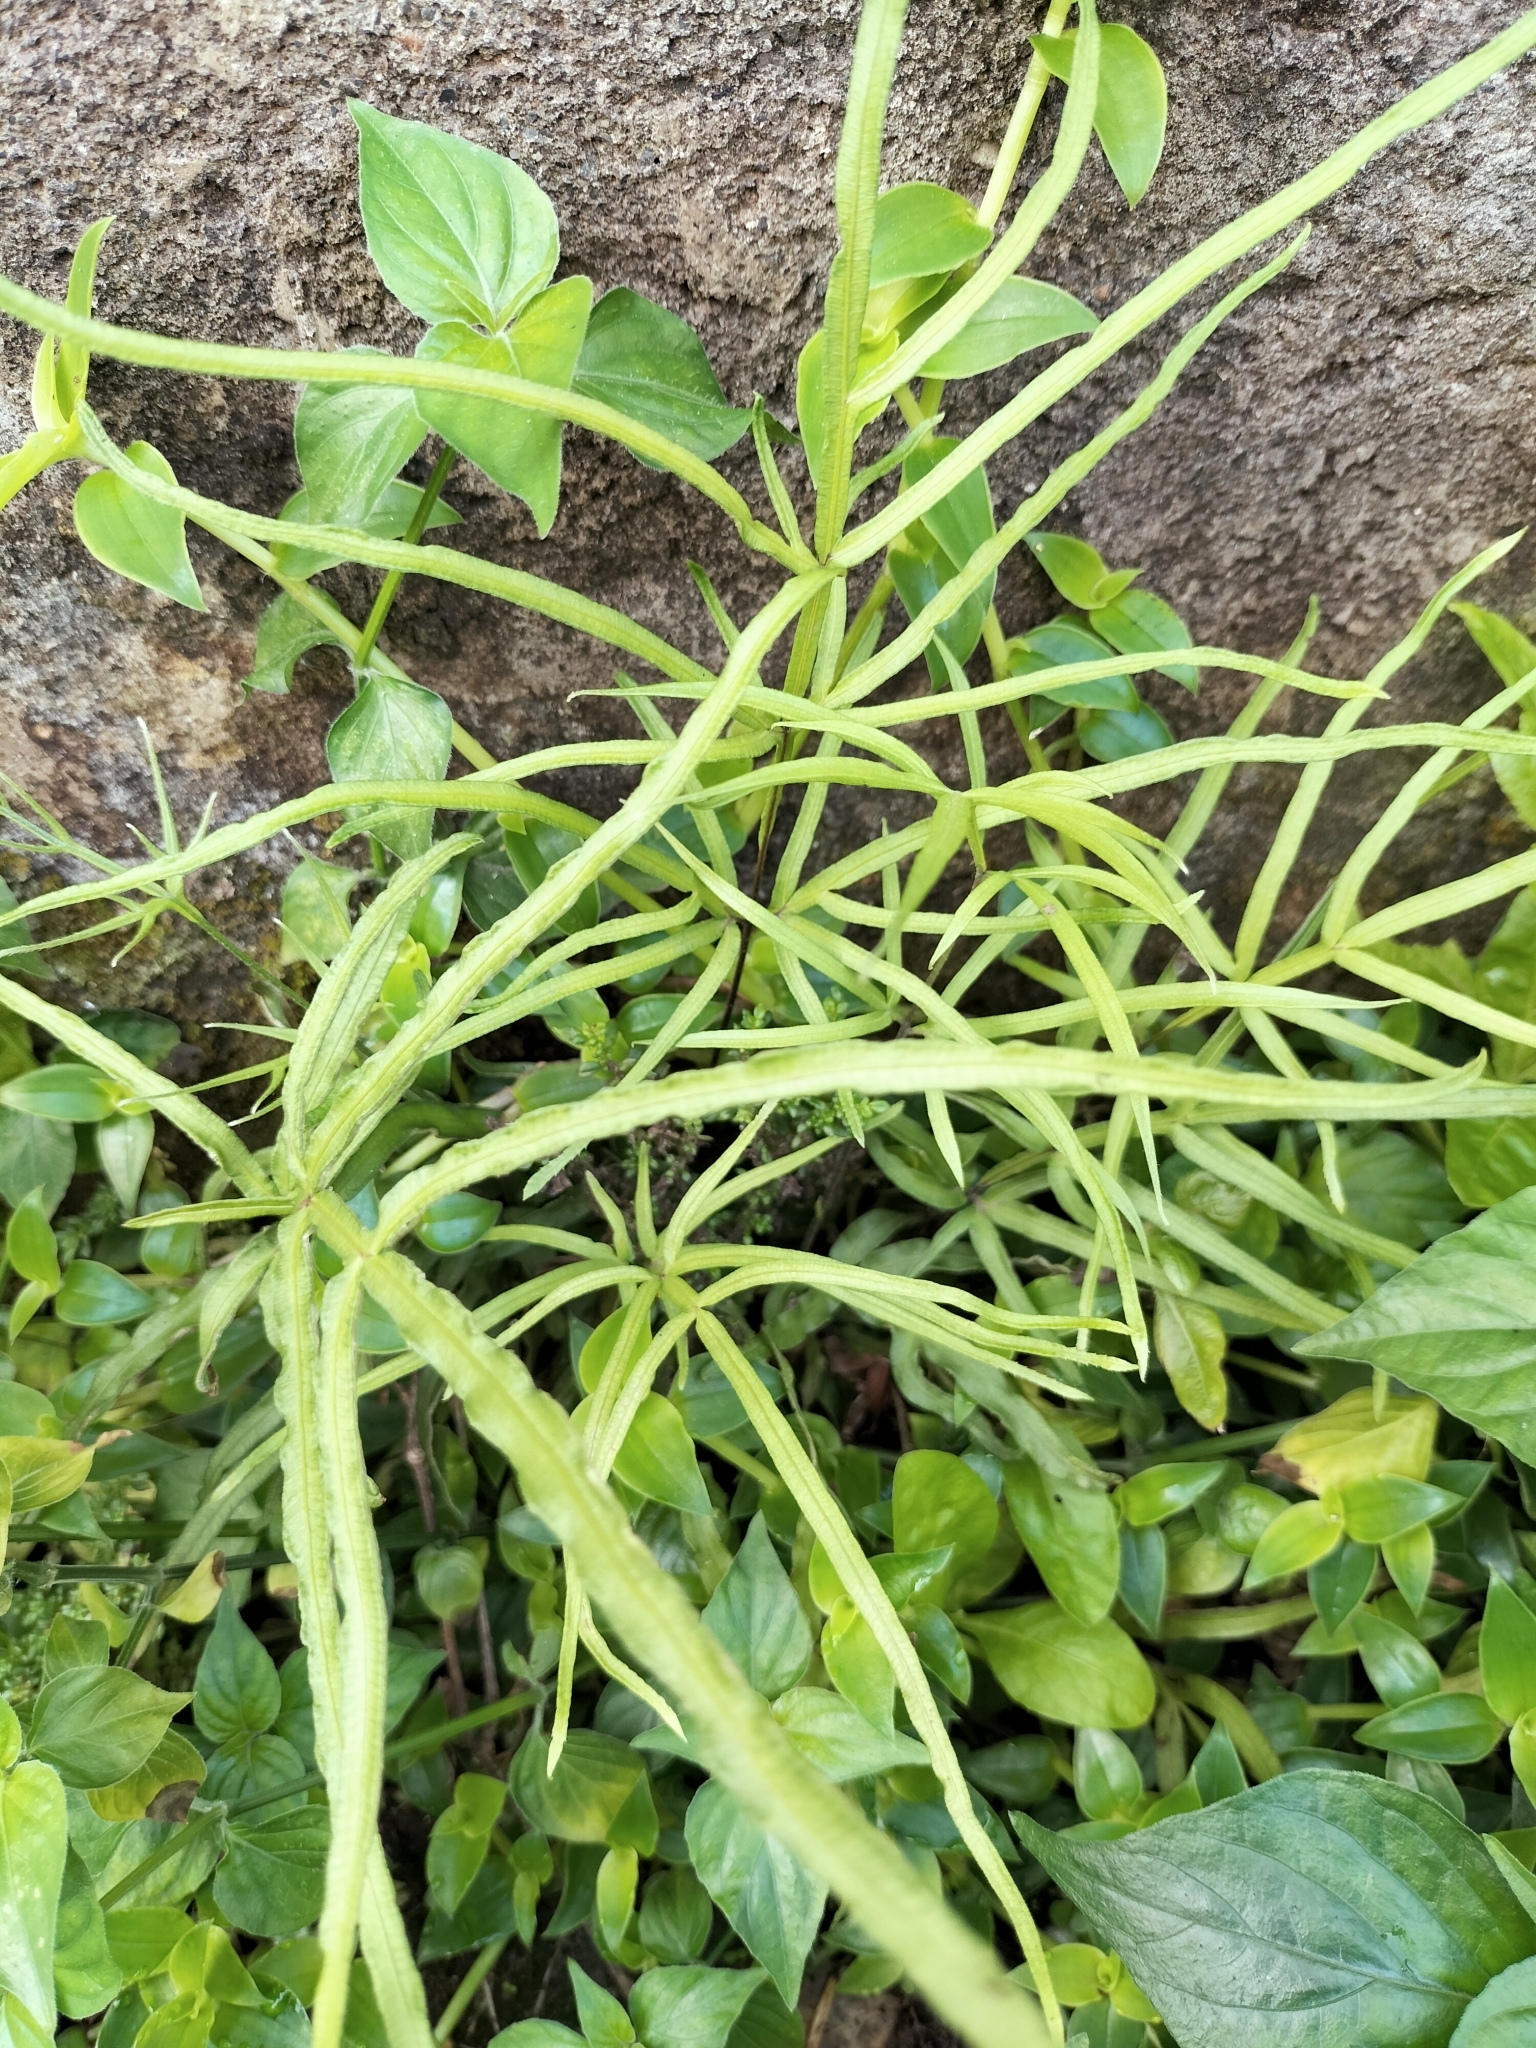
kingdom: Plantae
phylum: Tracheophyta
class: Polypodiopsida
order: Polypodiales
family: Pteridaceae
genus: Pteris
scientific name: Pteris multifida
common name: Spider brake
